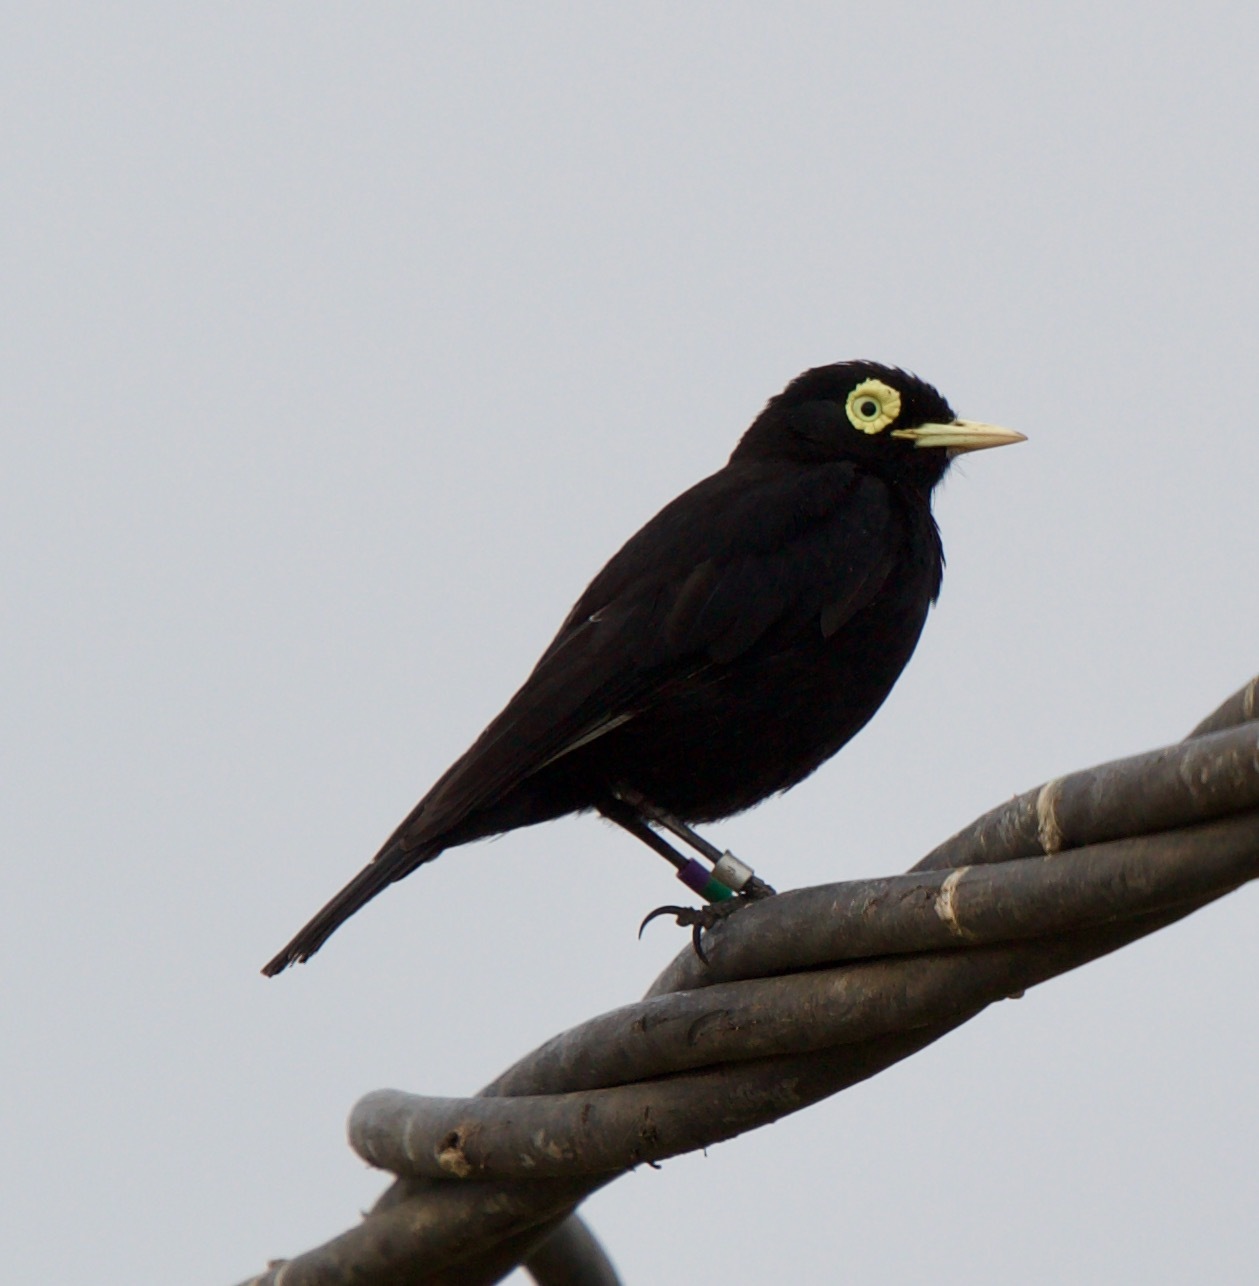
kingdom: Animalia
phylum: Chordata
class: Aves
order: Passeriformes
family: Tyrannidae
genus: Hymenops
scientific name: Hymenops perspicillatus
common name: Spectacled tyrant
